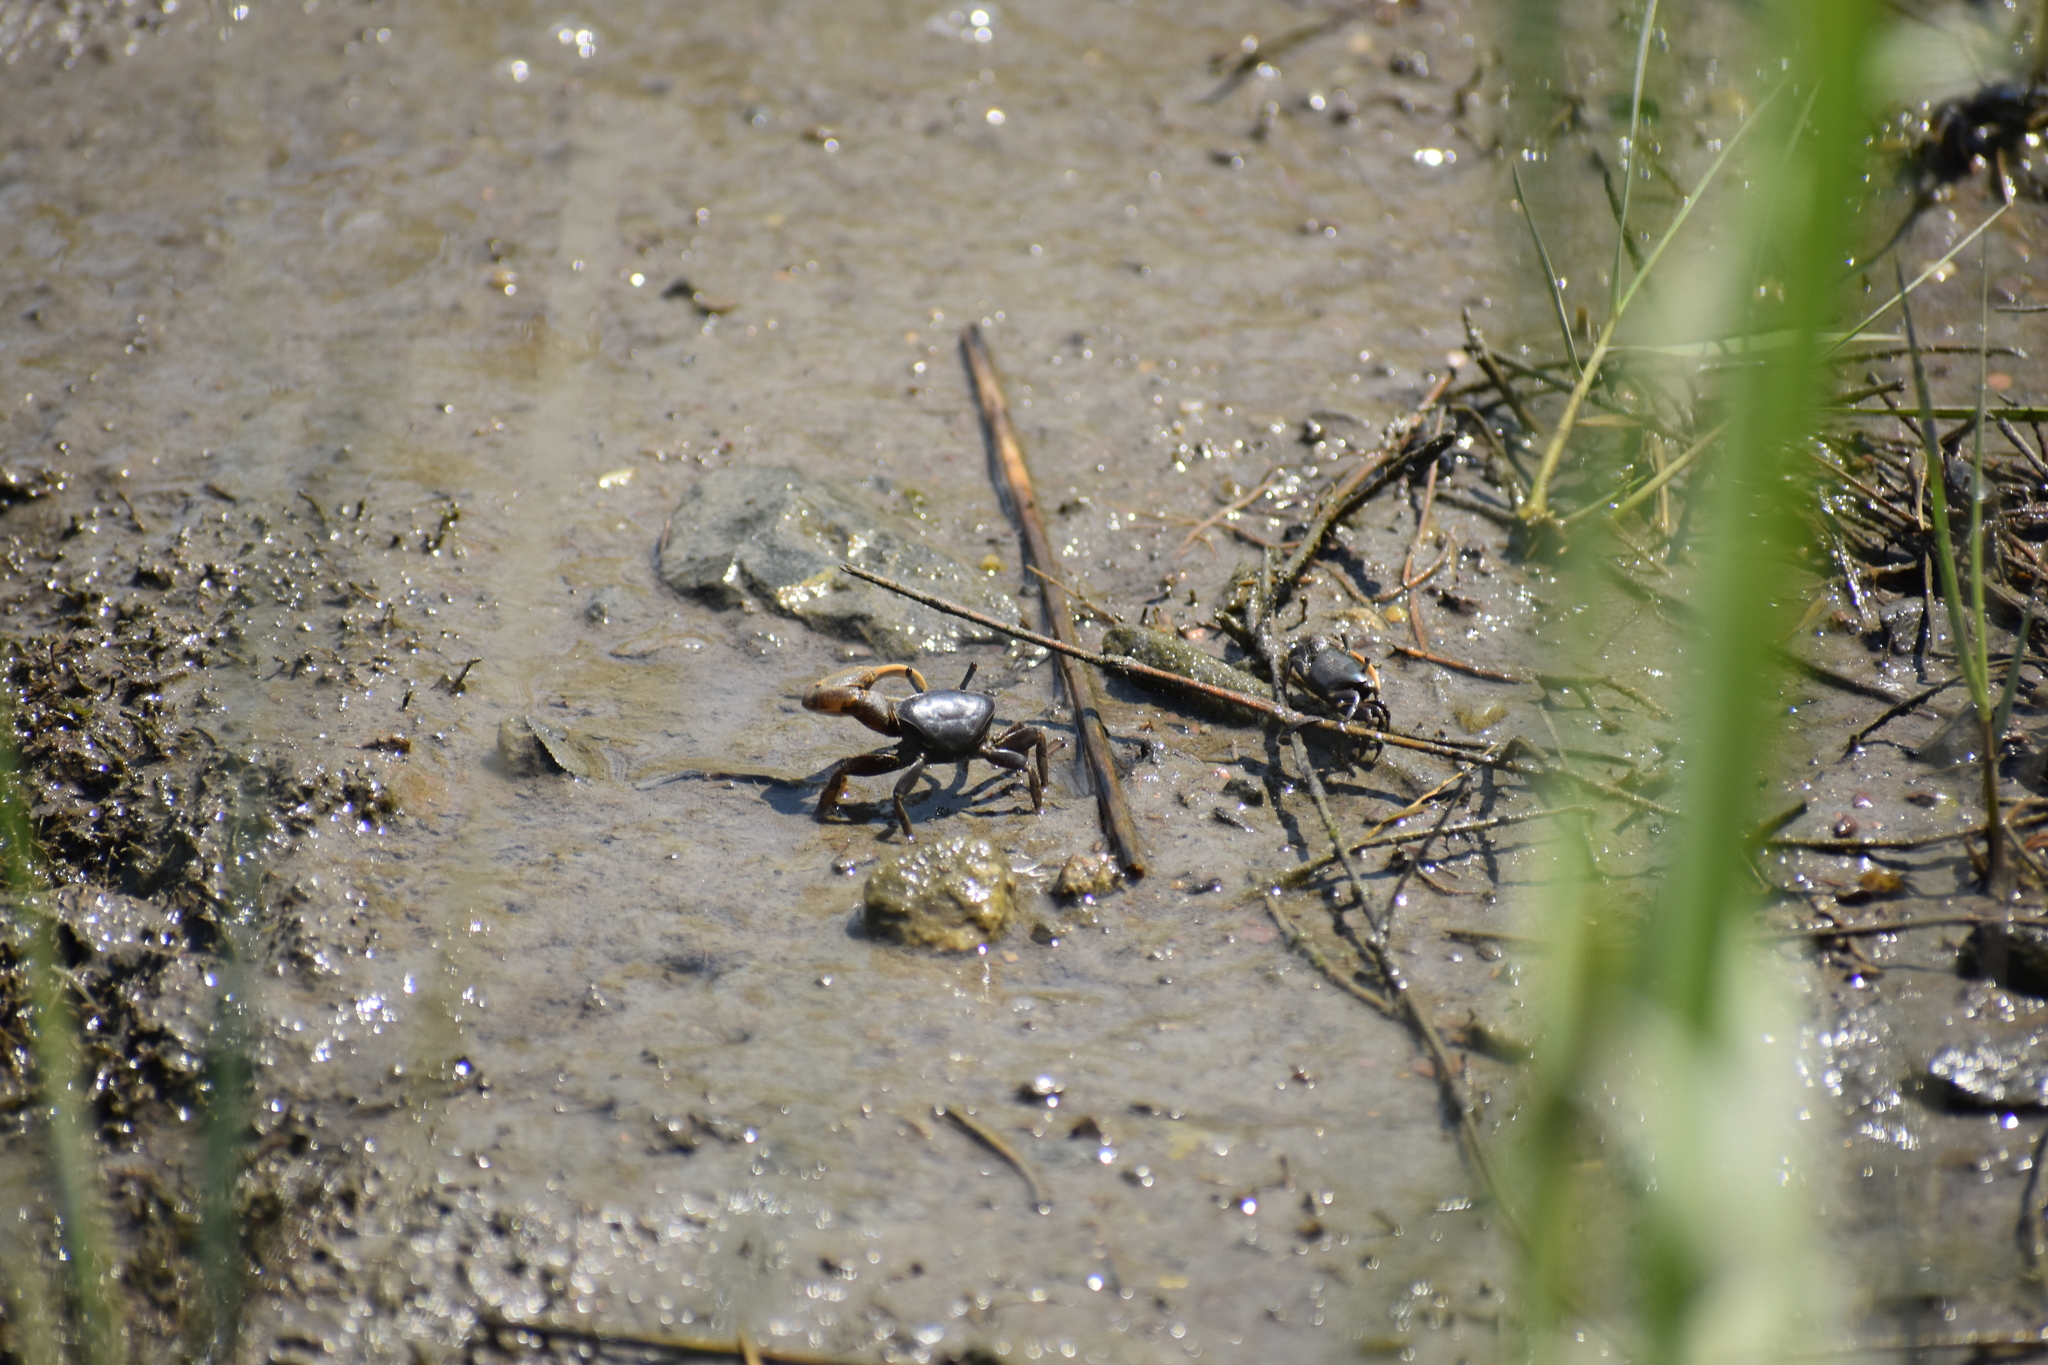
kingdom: Animalia
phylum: Arthropoda
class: Malacostraca
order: Decapoda
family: Ocypodidae
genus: Minuca
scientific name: Minuca pugnax
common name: Mud fiddler crab
